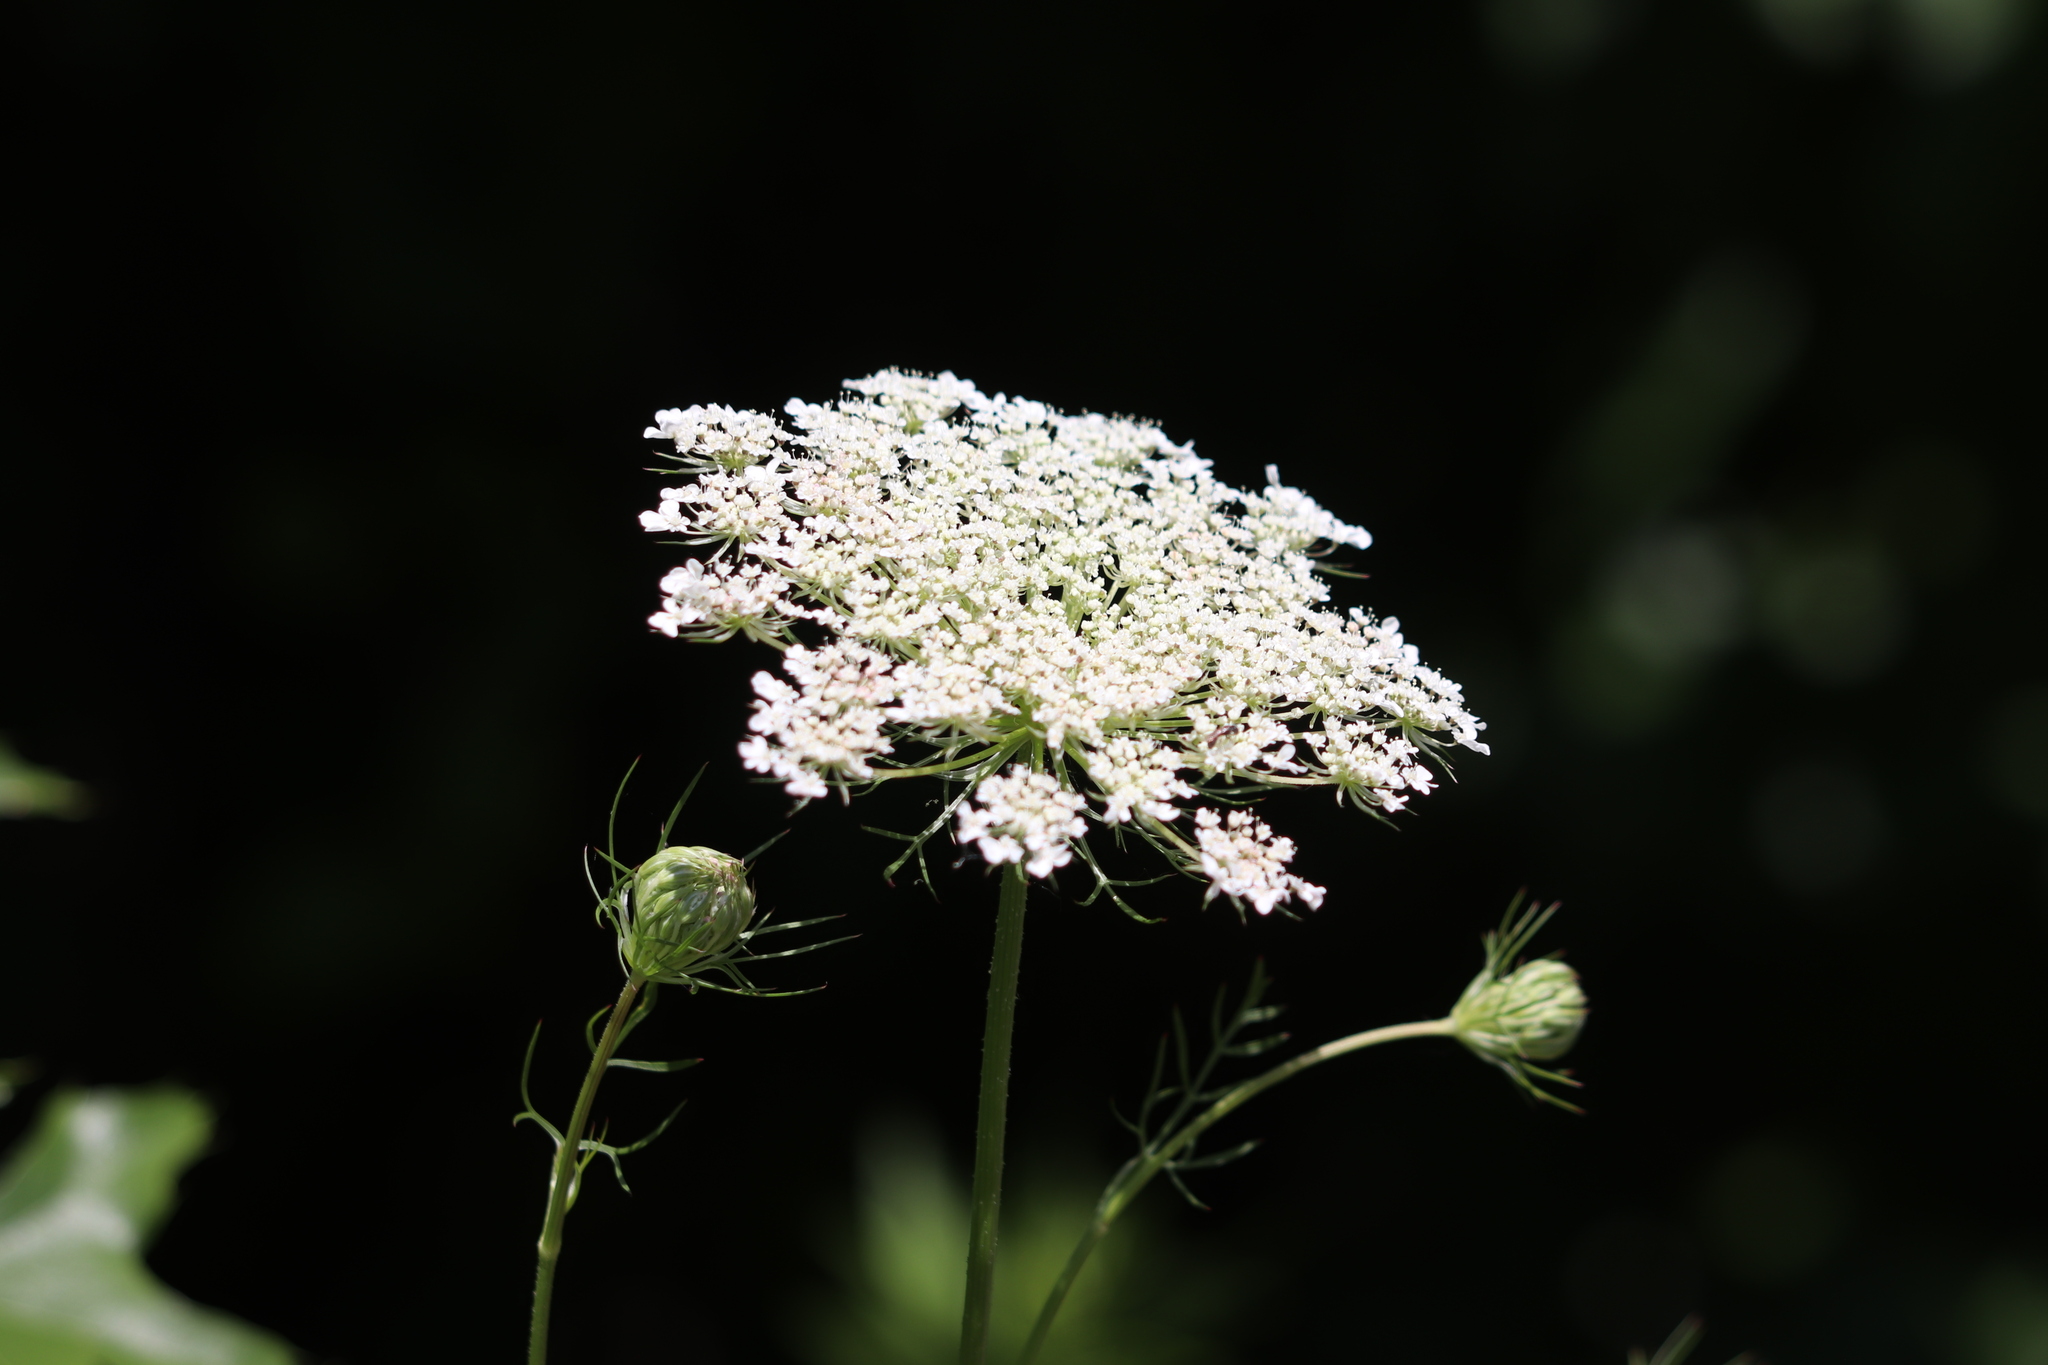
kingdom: Plantae
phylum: Tracheophyta
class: Magnoliopsida
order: Apiales
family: Apiaceae
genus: Daucus
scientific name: Daucus carota
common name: Wild carrot
